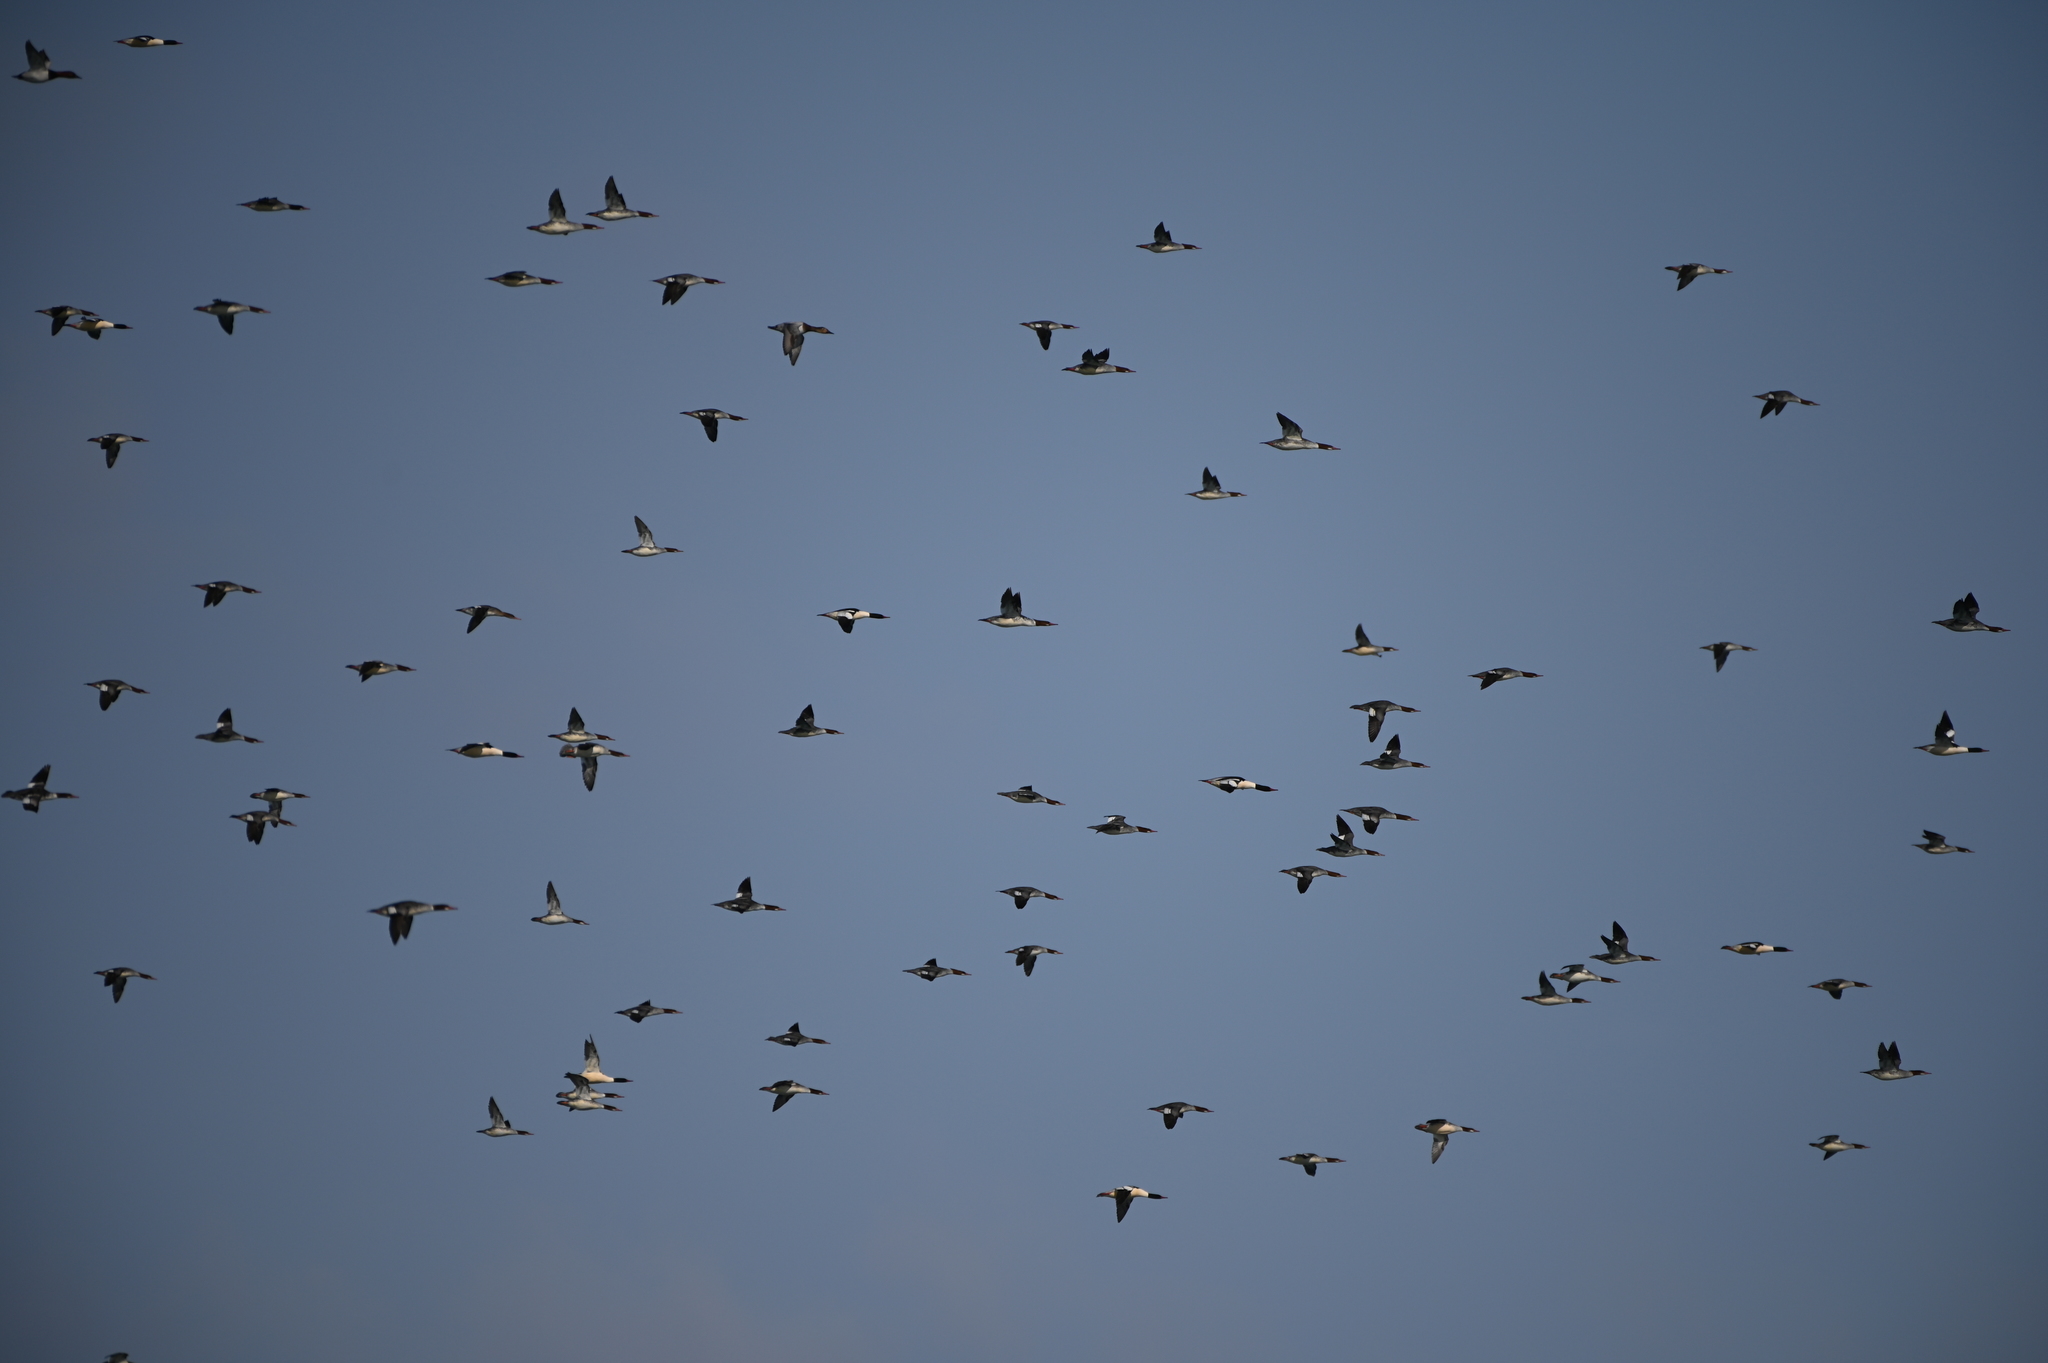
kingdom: Animalia
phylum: Chordata
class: Aves
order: Anseriformes
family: Anatidae
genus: Mergus
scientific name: Mergus merganser
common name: Common merganser
